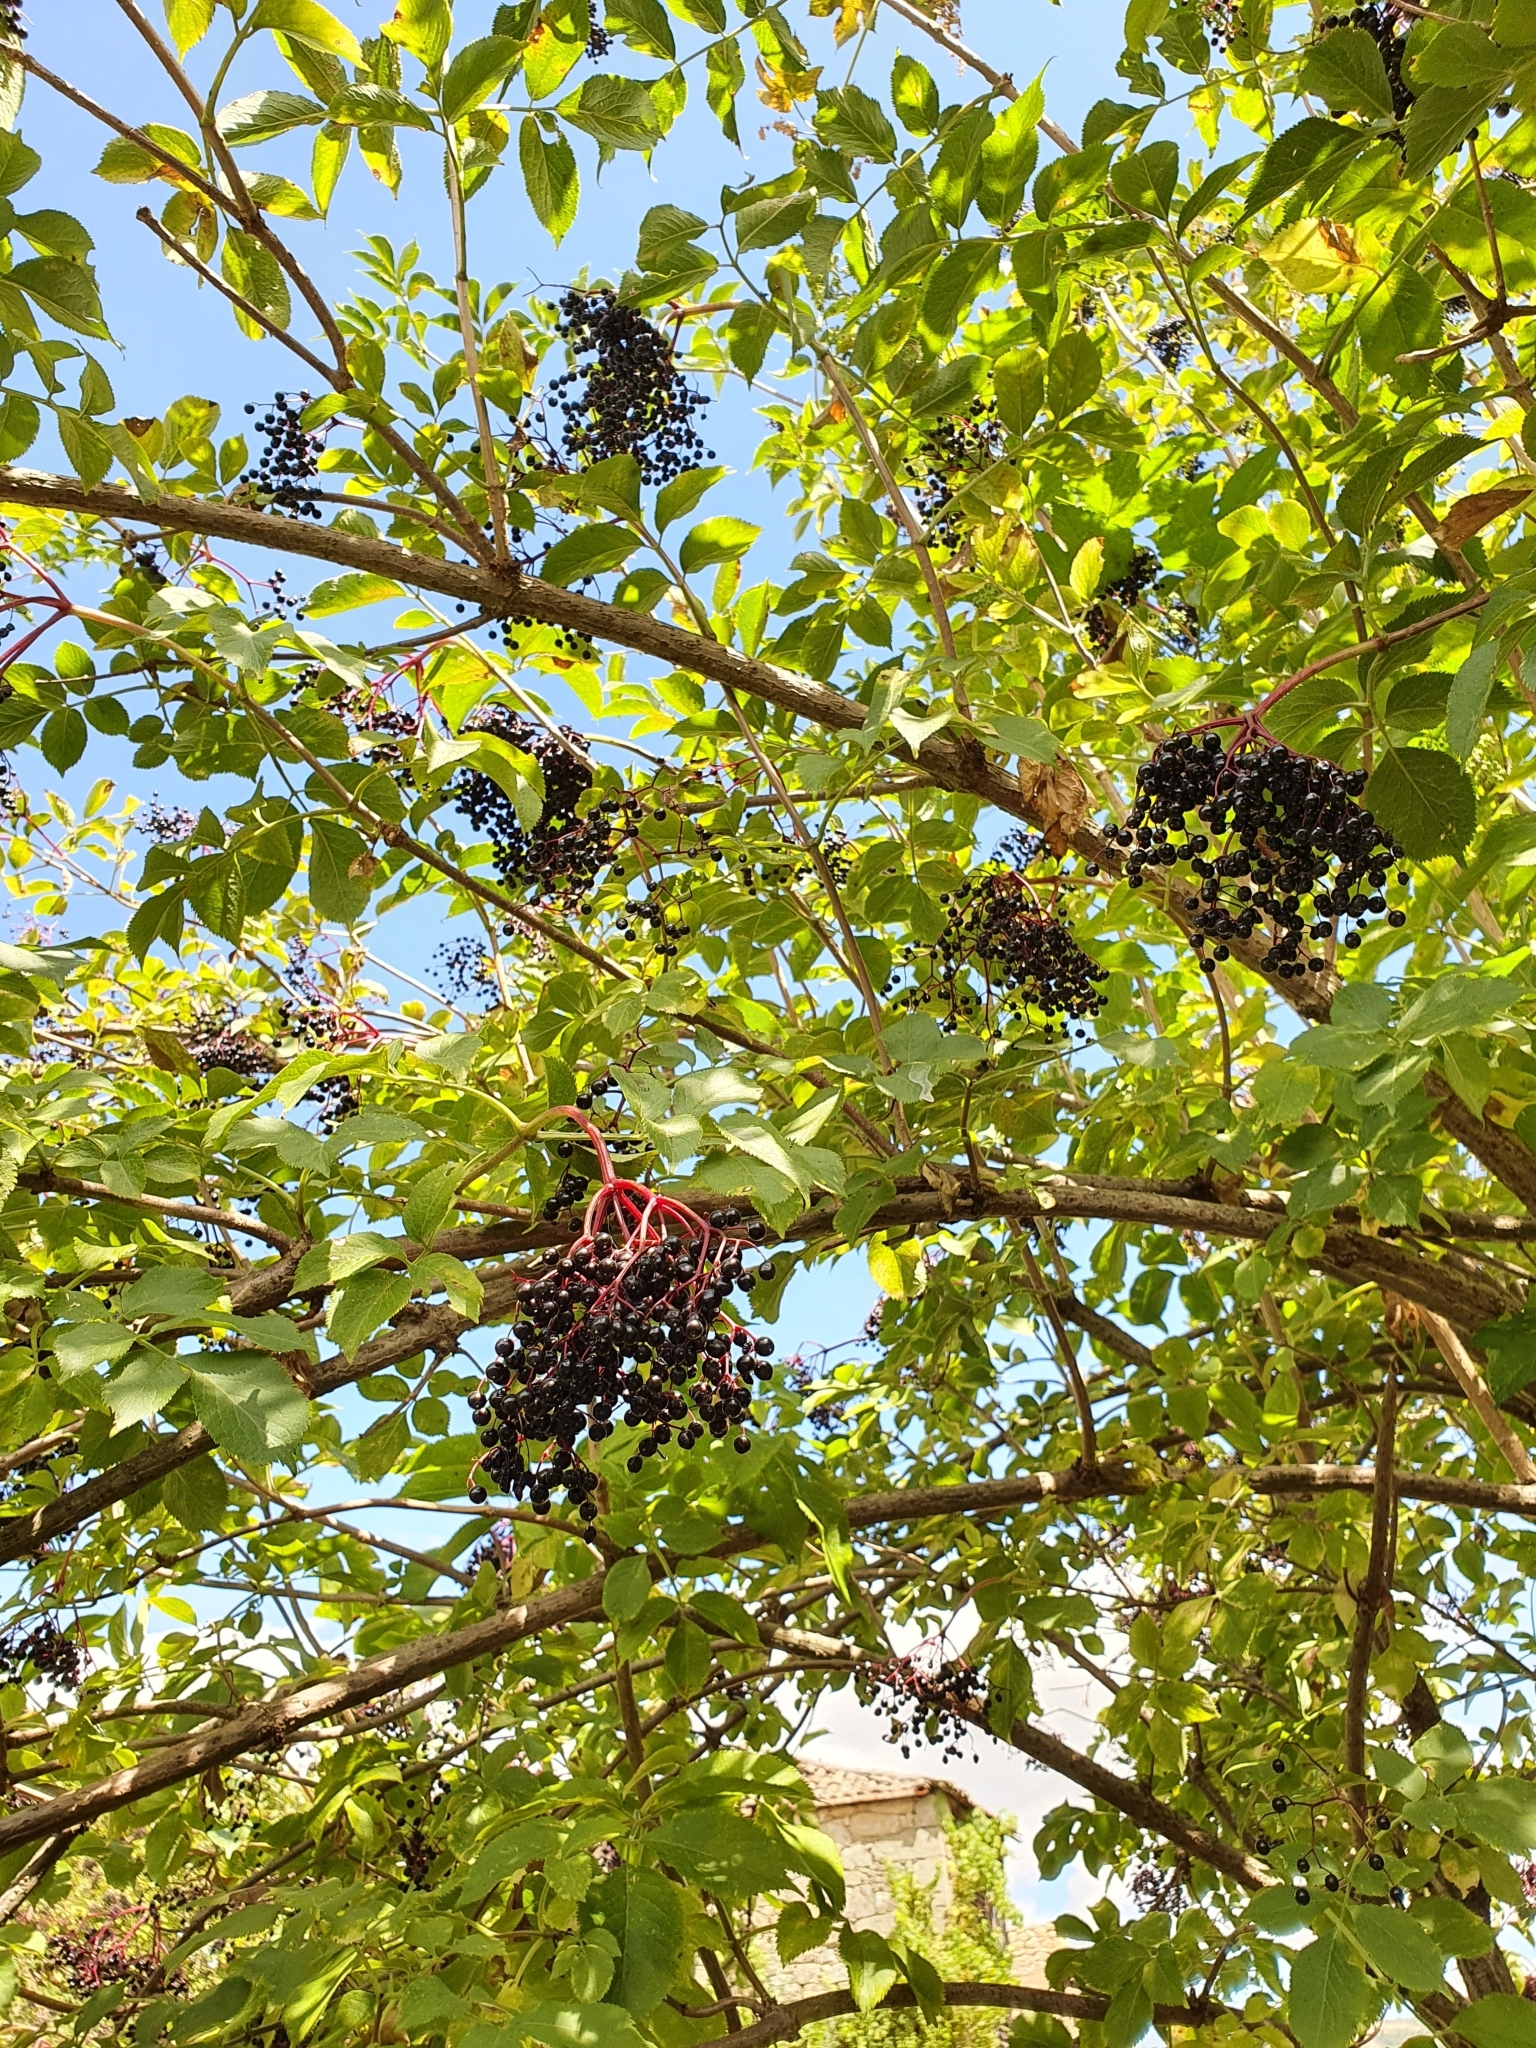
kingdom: Plantae
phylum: Tracheophyta
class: Magnoliopsida
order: Dipsacales
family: Viburnaceae
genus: Sambucus
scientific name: Sambucus nigra
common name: Elder
